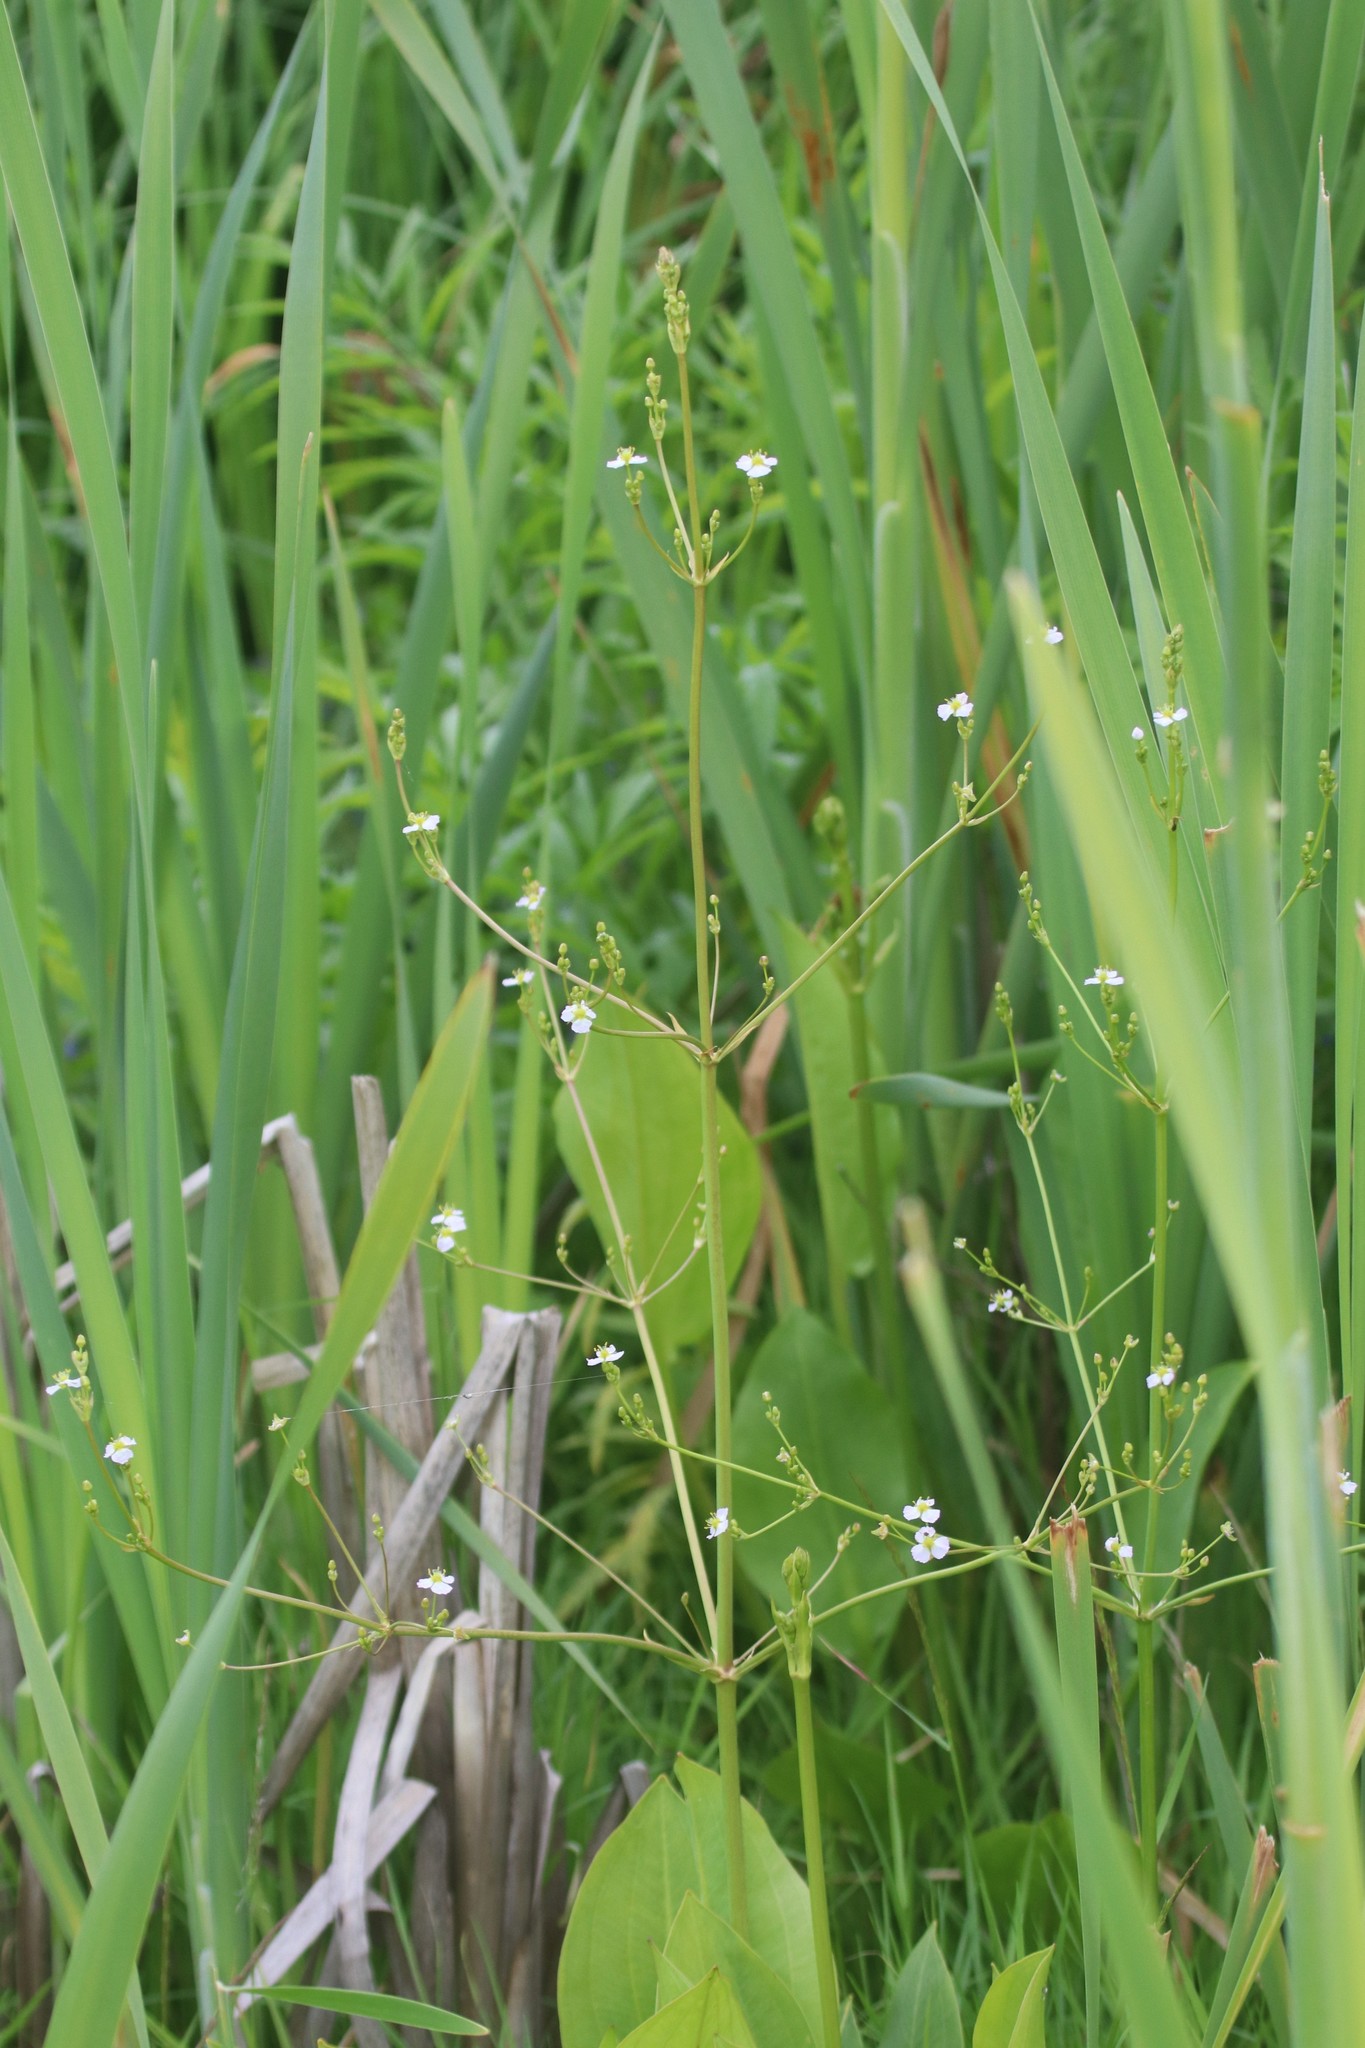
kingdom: Plantae
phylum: Tracheophyta
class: Liliopsida
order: Alismatales
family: Alismataceae
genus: Alisma
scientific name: Alisma plantago-aquatica
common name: Water-plantain
